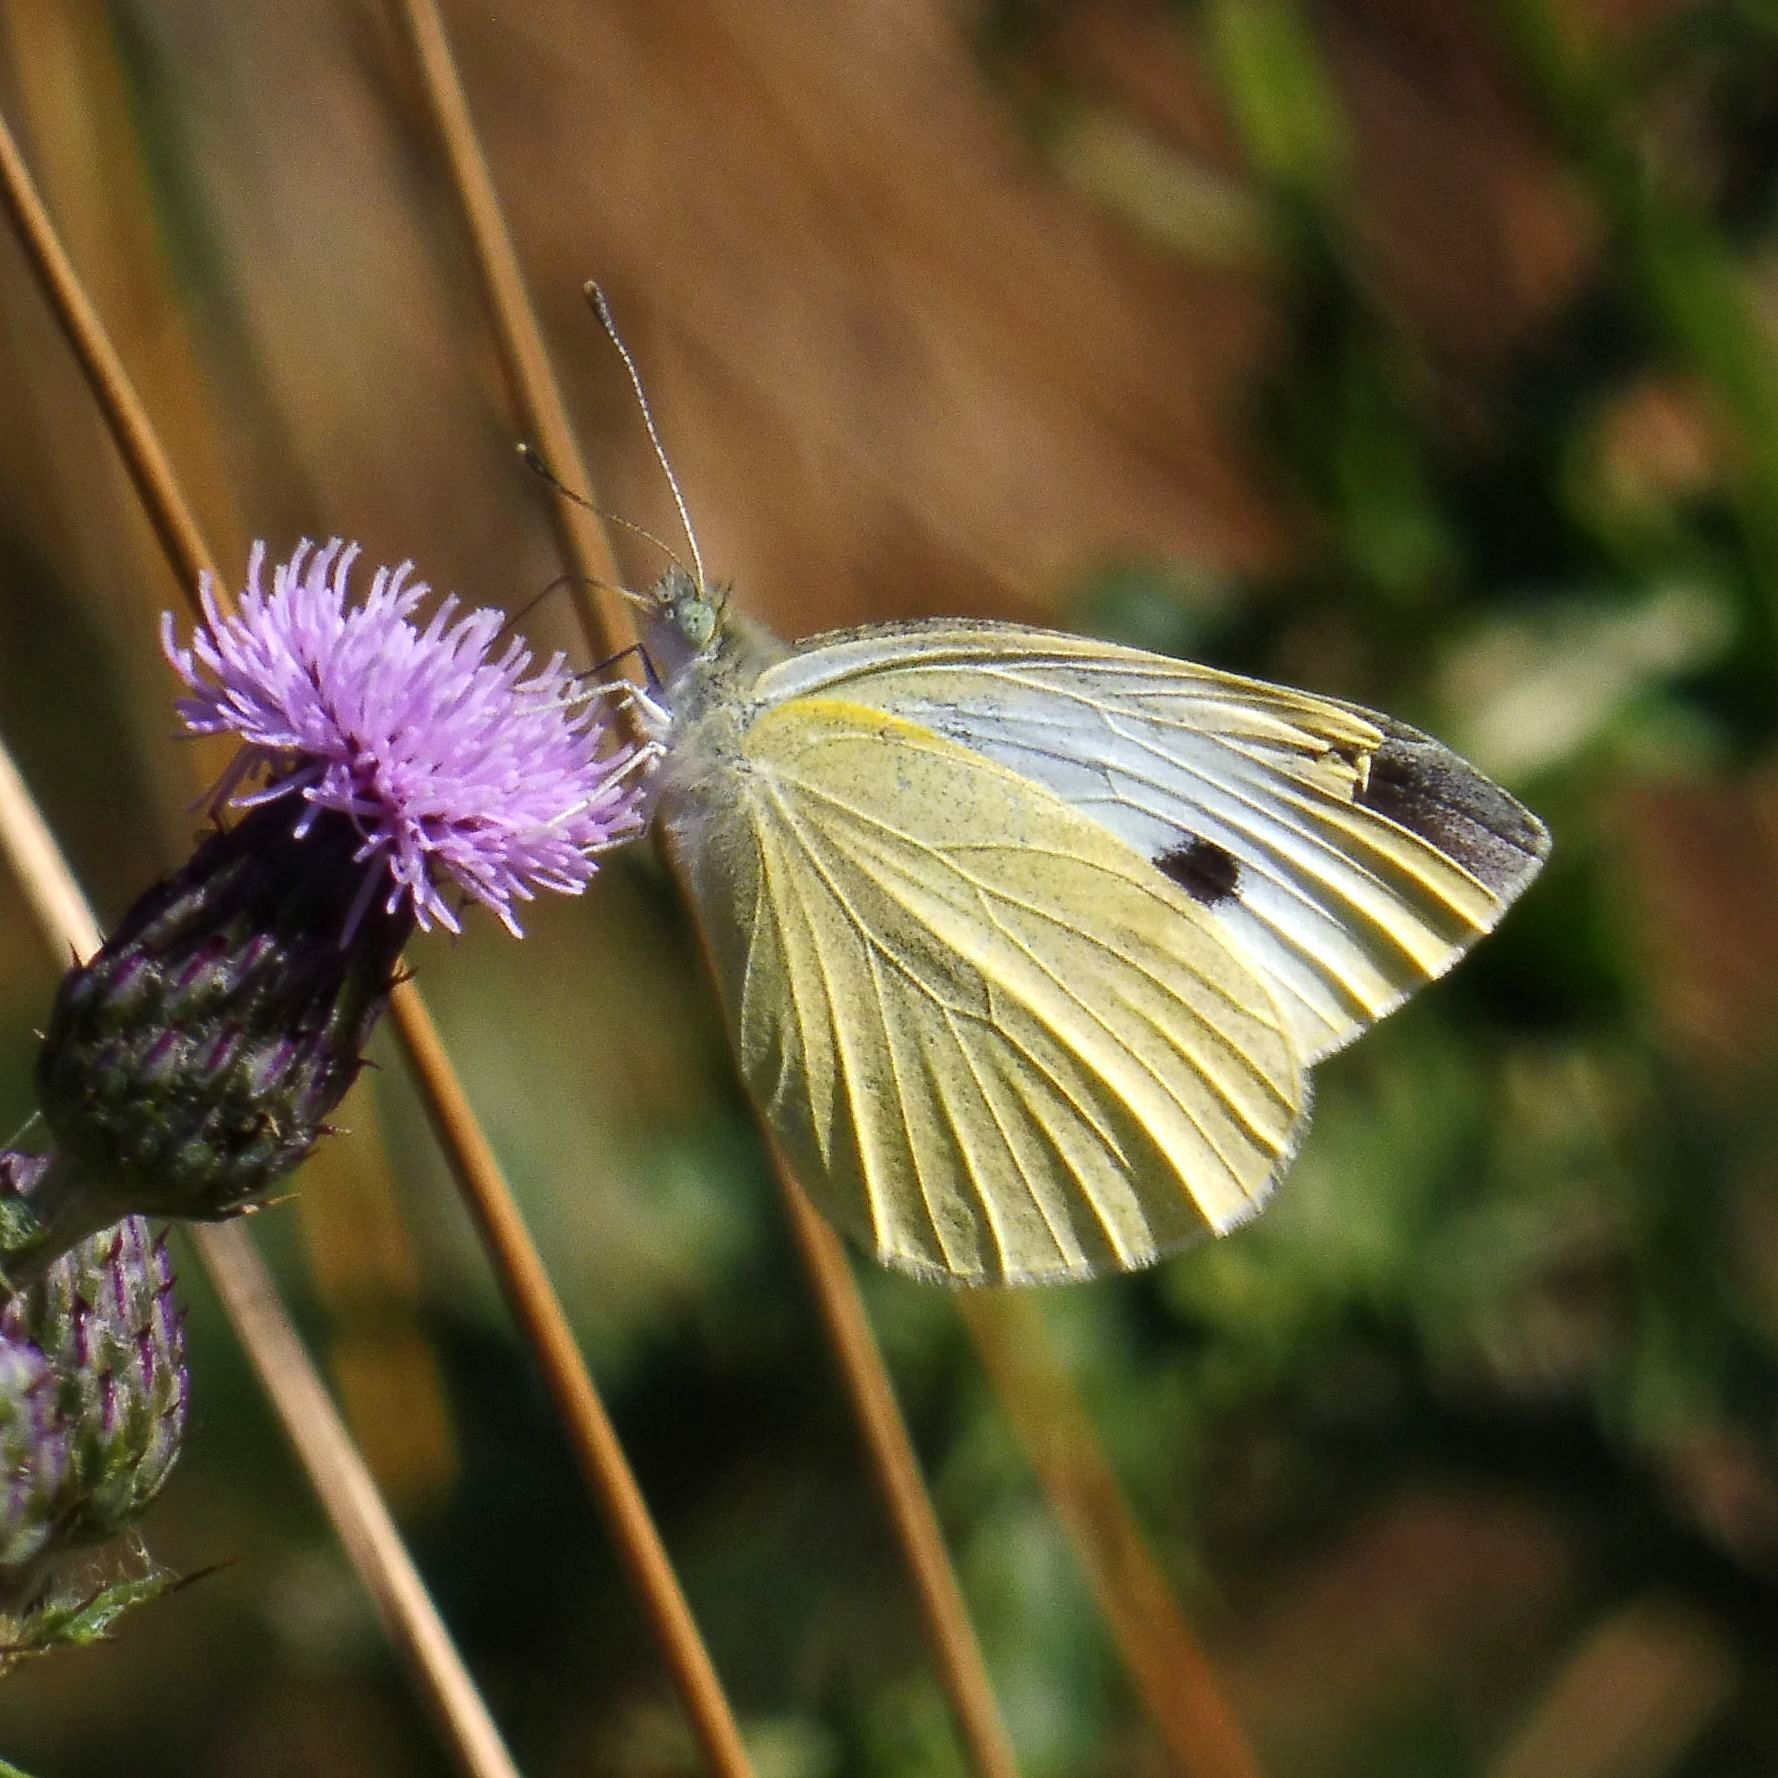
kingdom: Animalia
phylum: Arthropoda
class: Insecta
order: Lepidoptera
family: Pieridae
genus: Pieris
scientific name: Pieris rapae
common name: Small white
